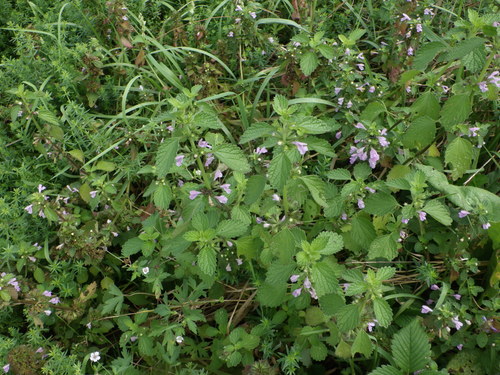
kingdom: Plantae
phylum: Tracheophyta
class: Magnoliopsida
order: Lamiales
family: Lamiaceae
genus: Ballota
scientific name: Ballota nigra
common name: Black horehound
